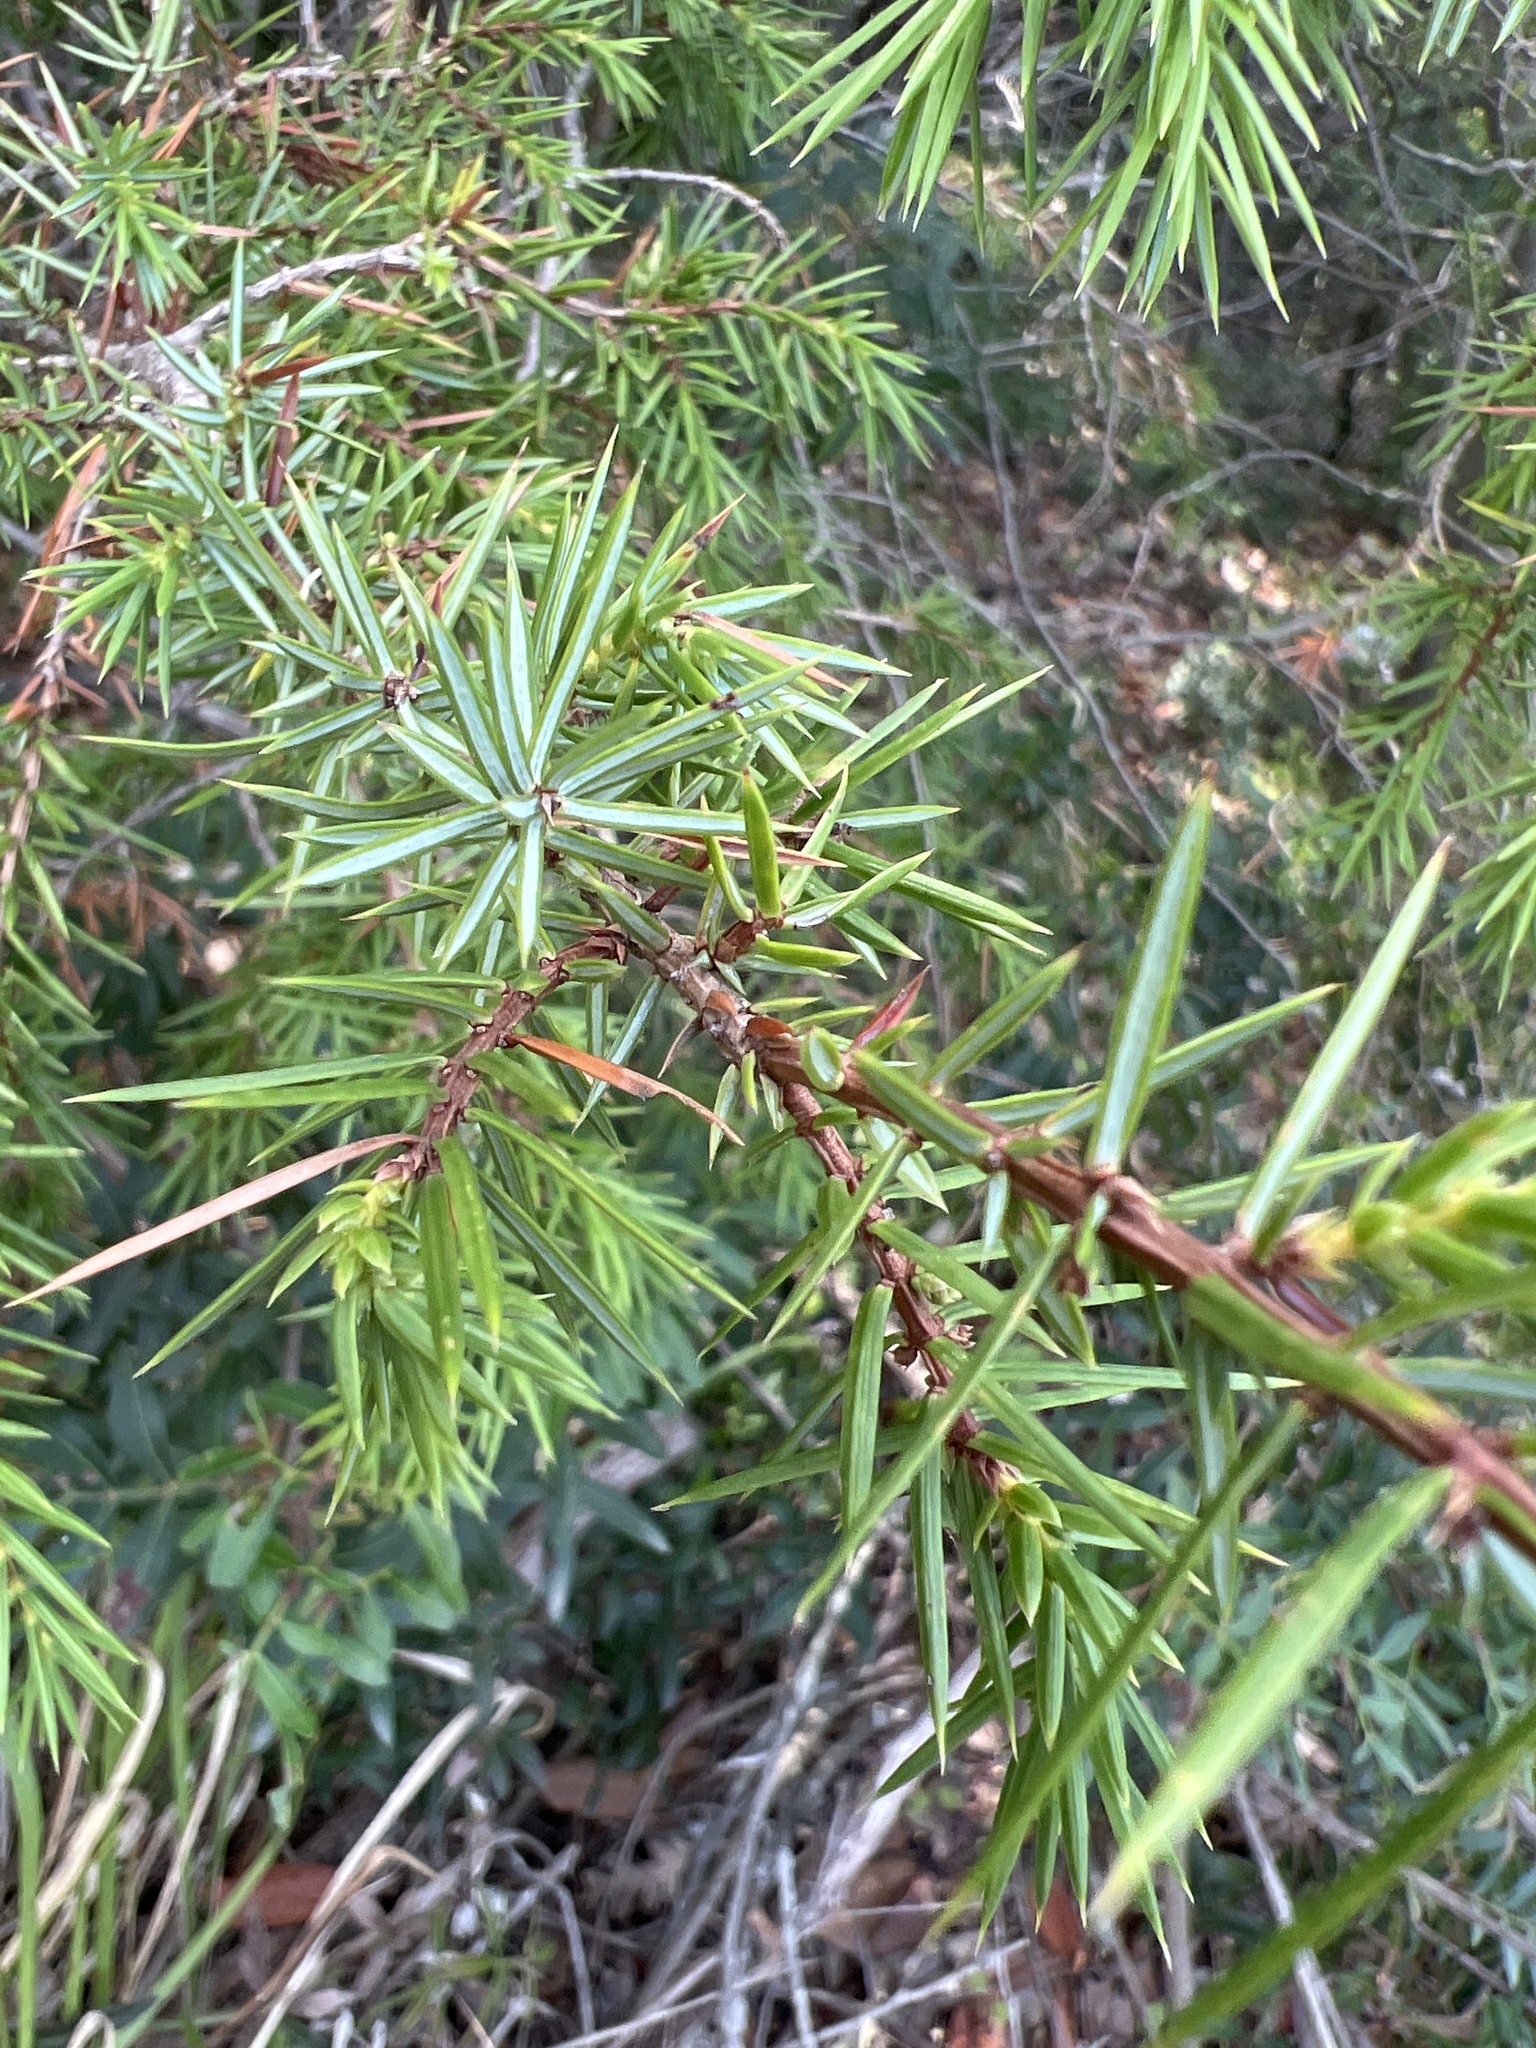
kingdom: Plantae
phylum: Tracheophyta
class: Pinopsida
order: Pinales
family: Cupressaceae
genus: Juniperus
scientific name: Juniperus communis
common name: Common juniper
